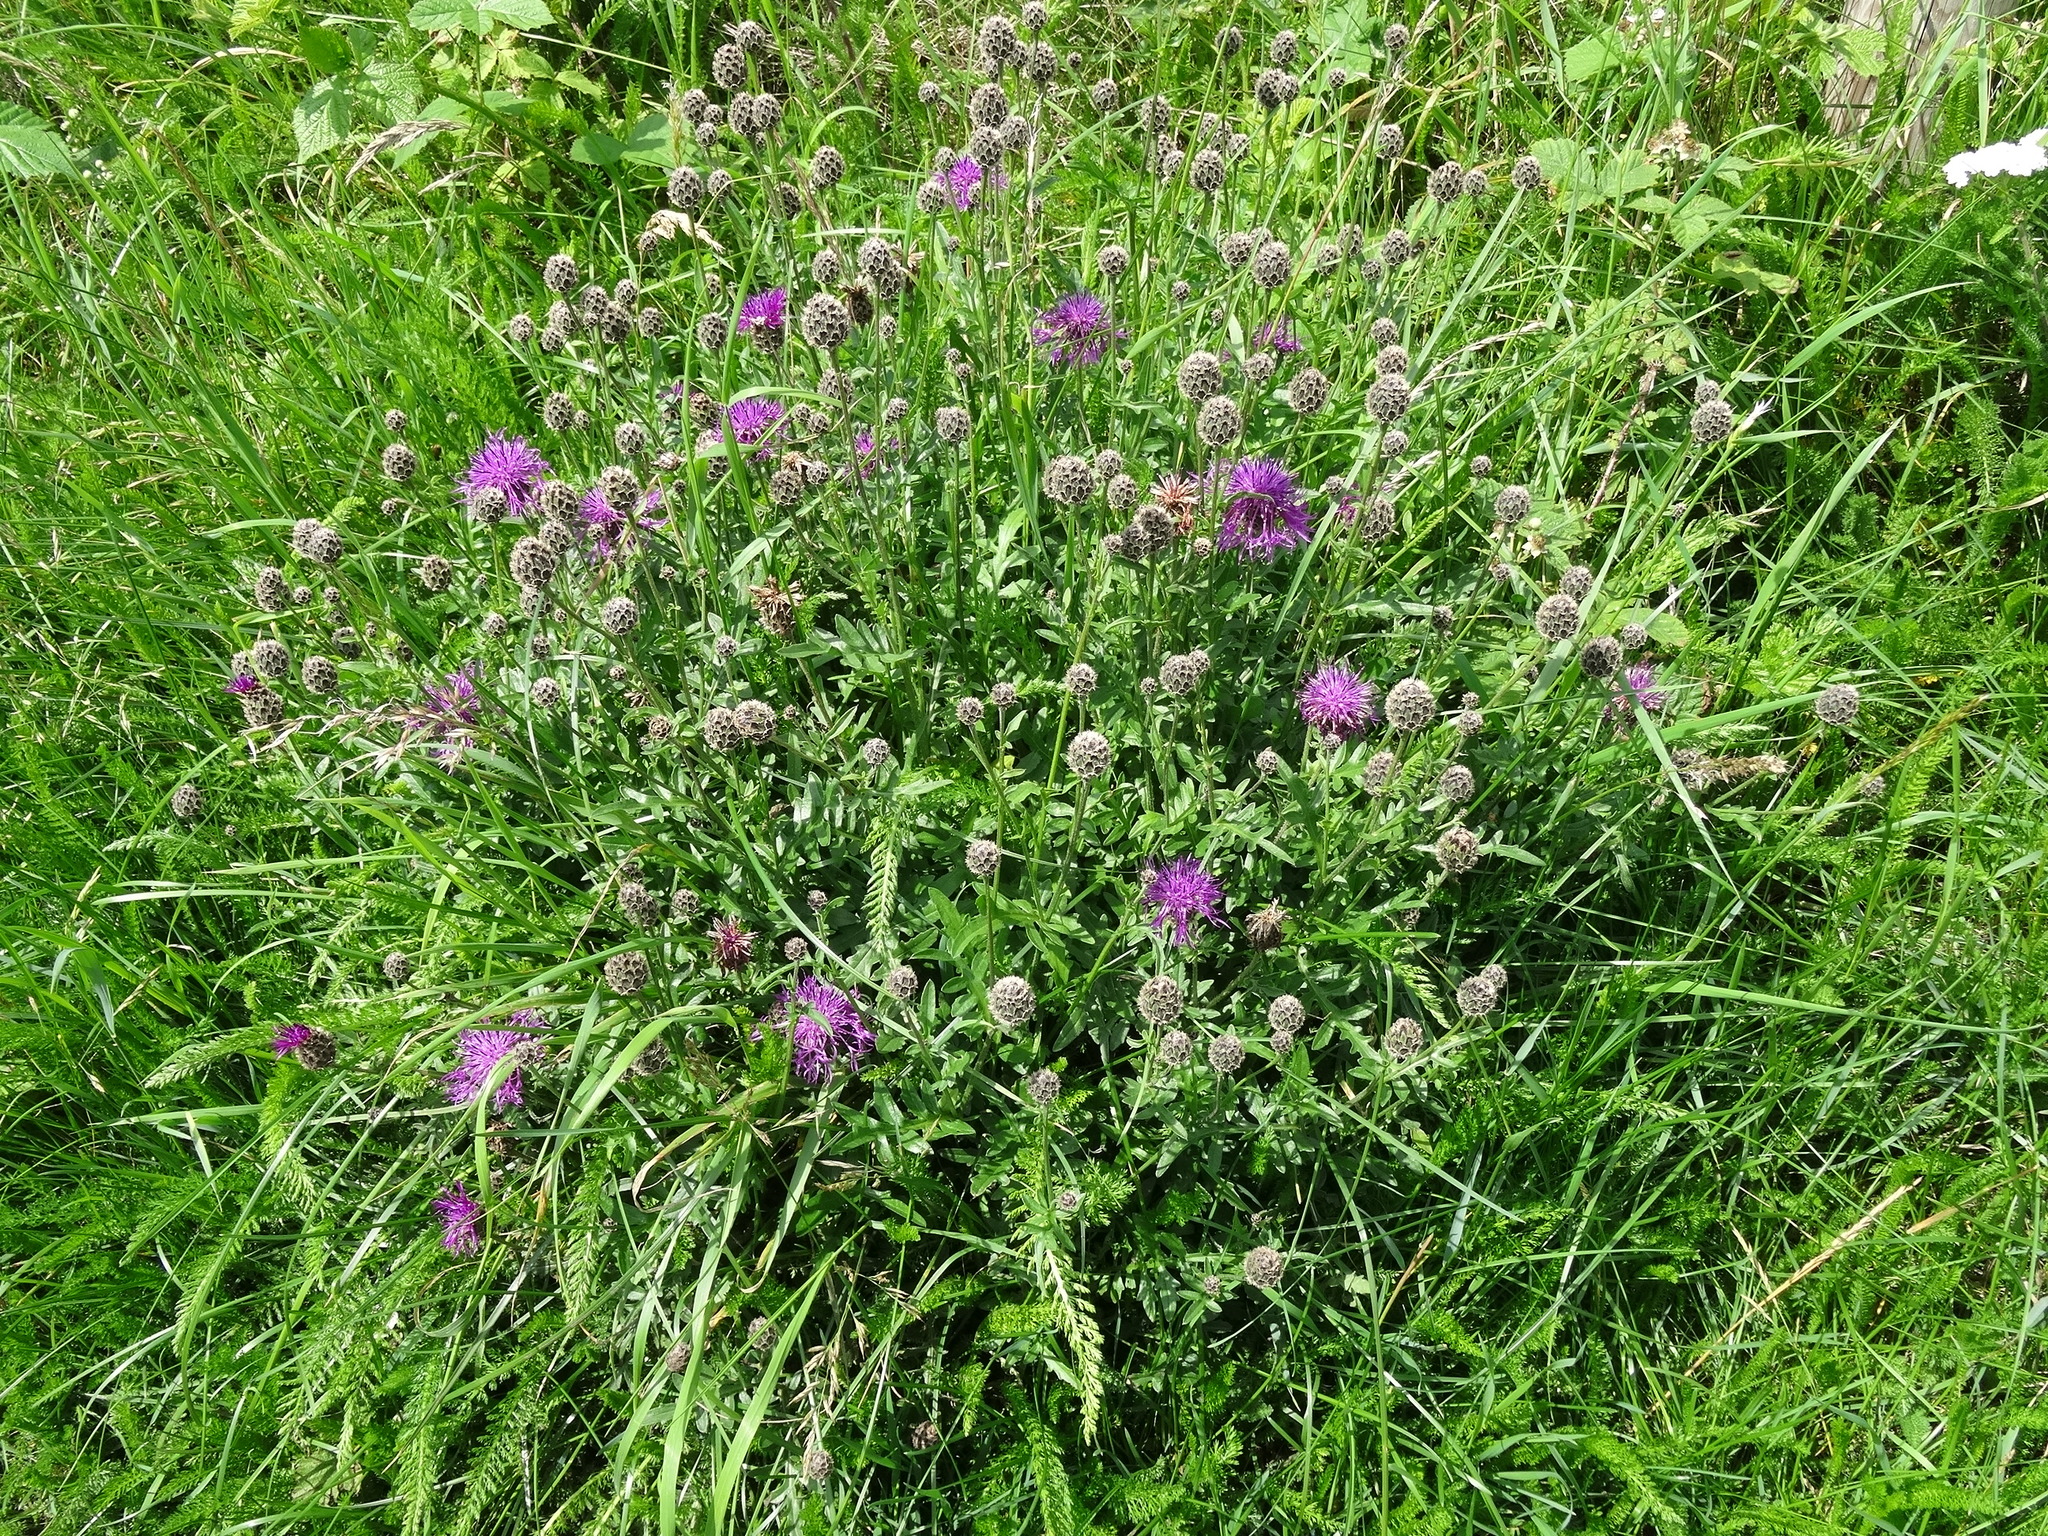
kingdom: Plantae
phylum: Tracheophyta
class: Magnoliopsida
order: Asterales
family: Asteraceae
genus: Centaurea
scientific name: Centaurea scabiosa
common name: Greater knapweed
